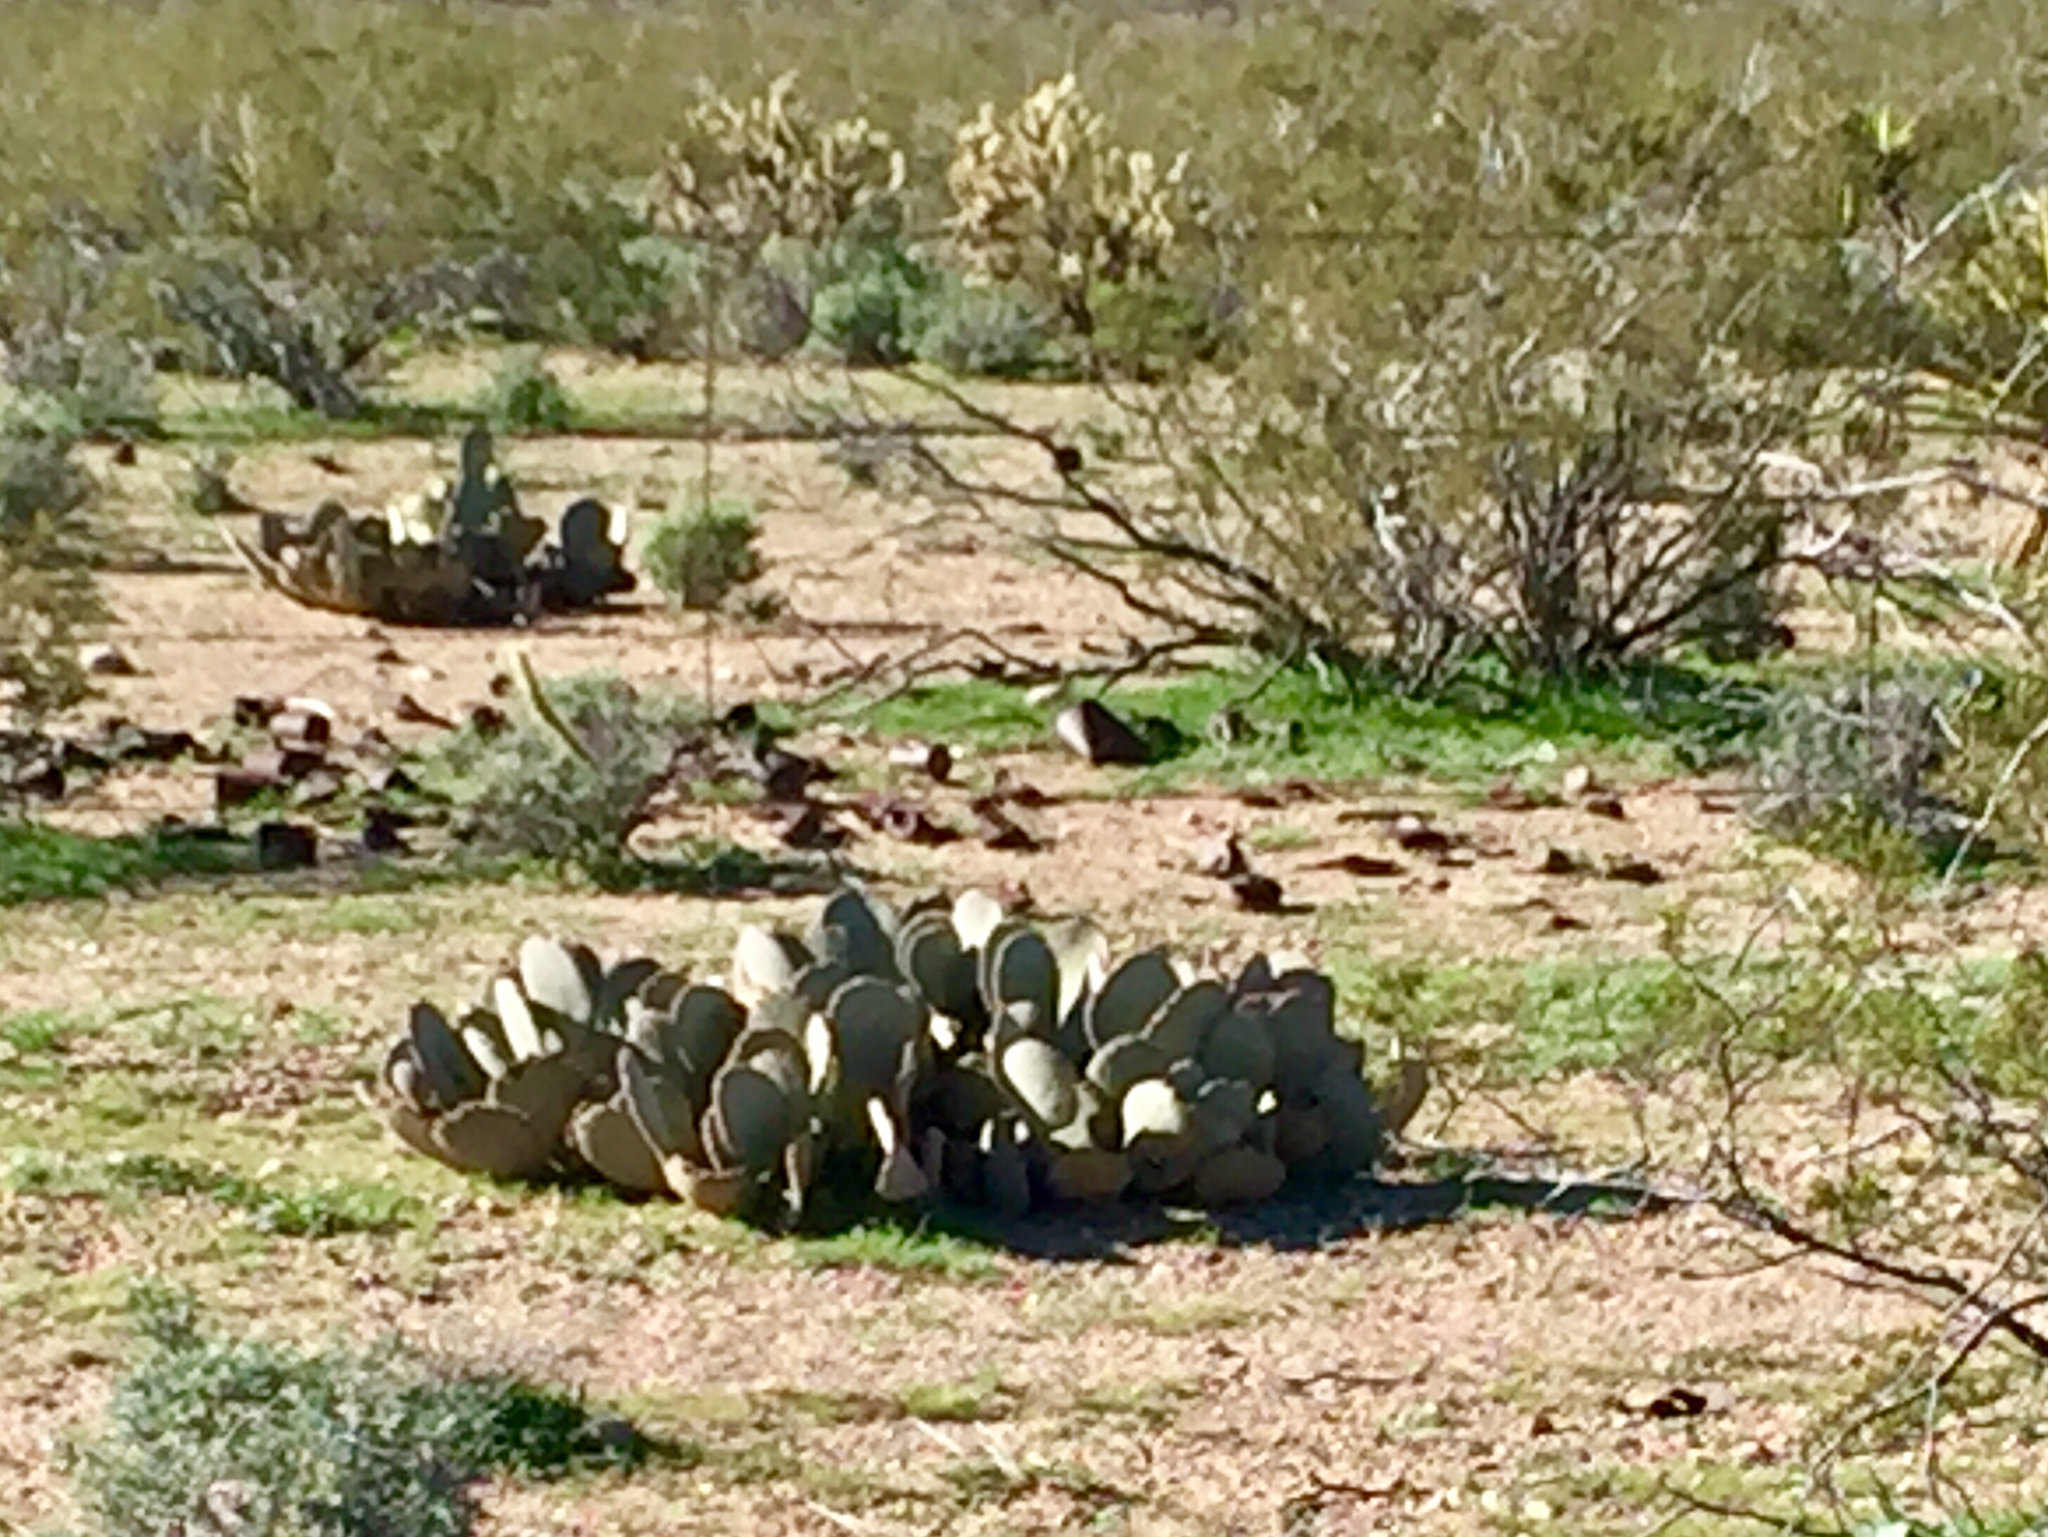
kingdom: Plantae
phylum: Tracheophyta
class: Magnoliopsida
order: Caryophyllales
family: Cactaceae
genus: Opuntia
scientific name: Opuntia basilaris
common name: Beavertail prickly-pear
